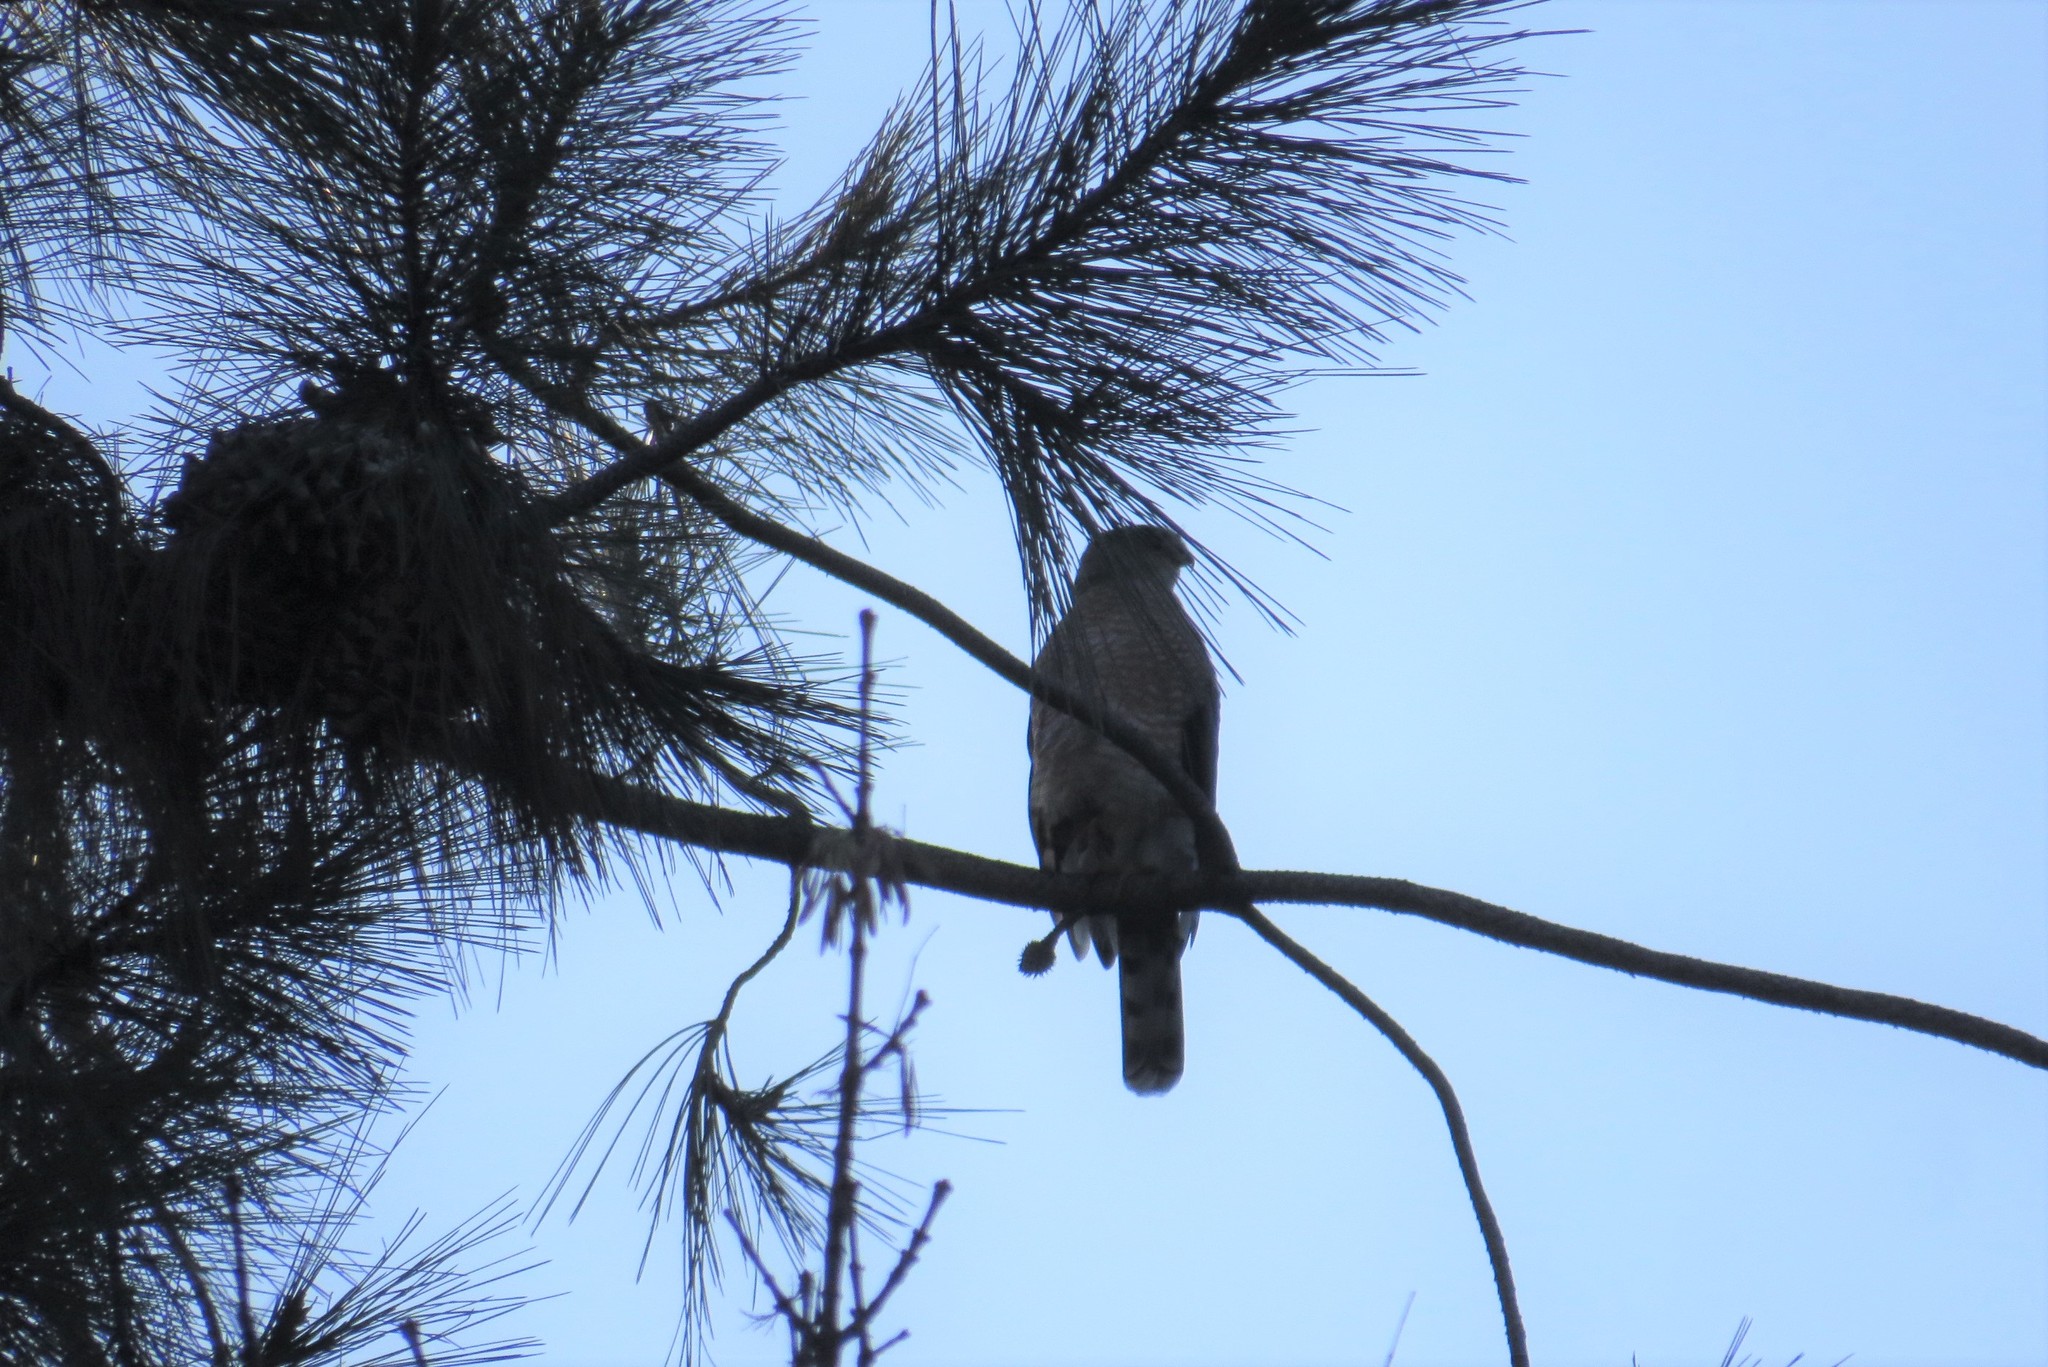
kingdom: Animalia
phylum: Chordata
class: Aves
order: Accipitriformes
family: Accipitridae
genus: Accipiter
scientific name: Accipiter cooperii
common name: Cooper's hawk
